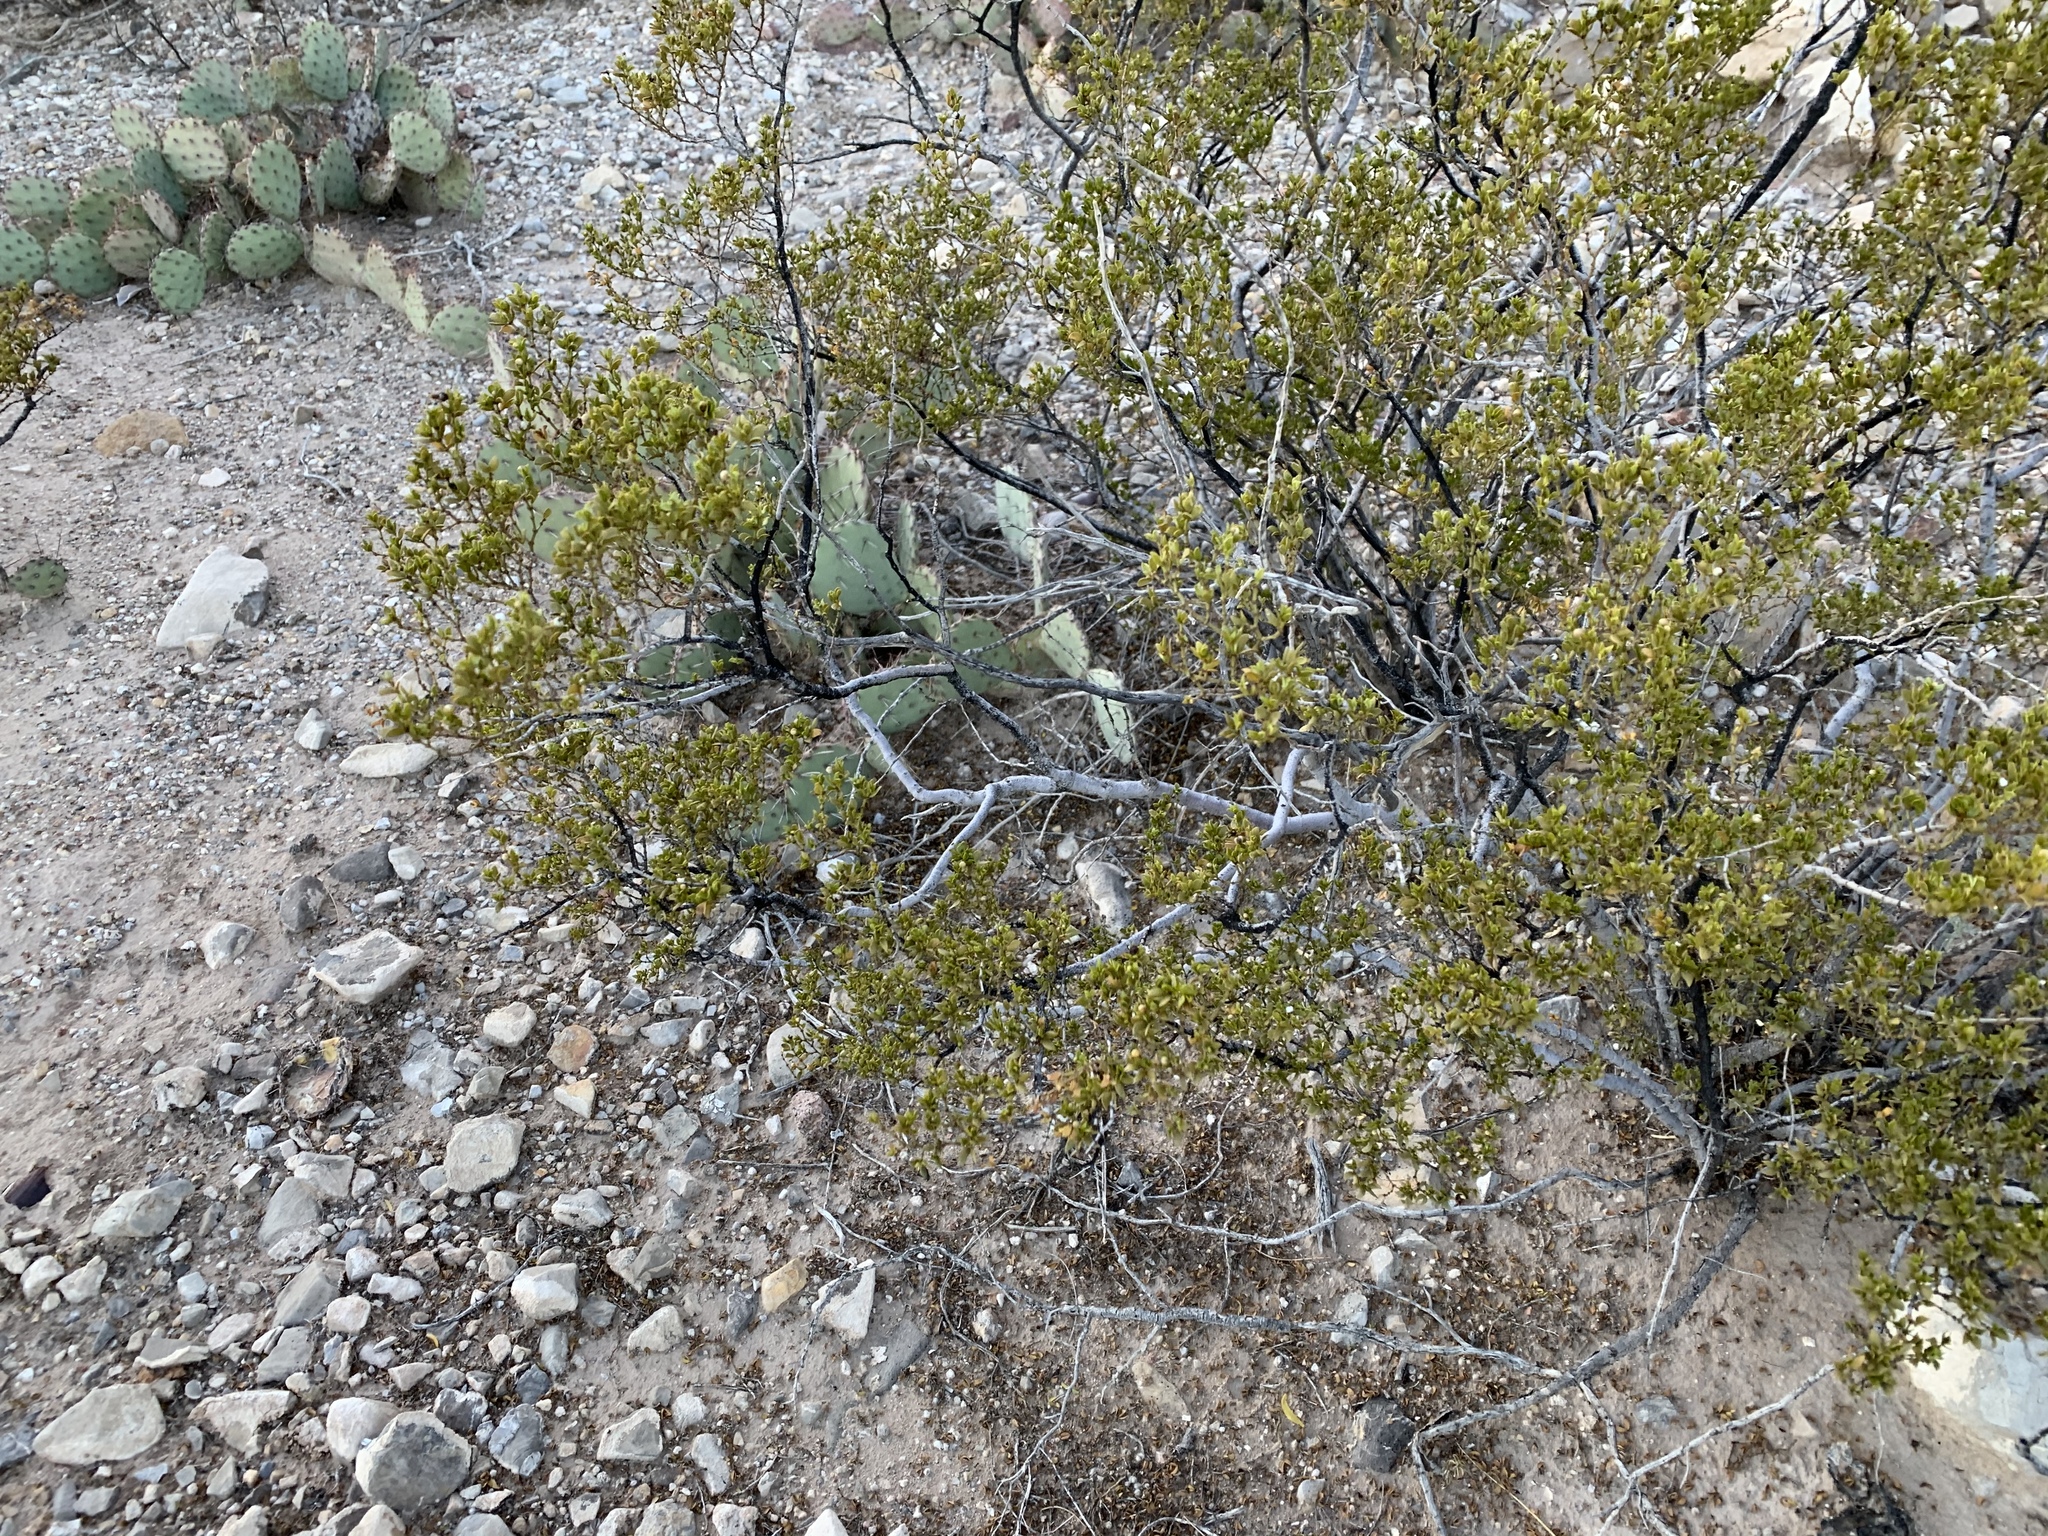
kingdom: Plantae
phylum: Tracheophyta
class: Magnoliopsida
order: Zygophyllales
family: Zygophyllaceae
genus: Larrea
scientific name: Larrea tridentata
